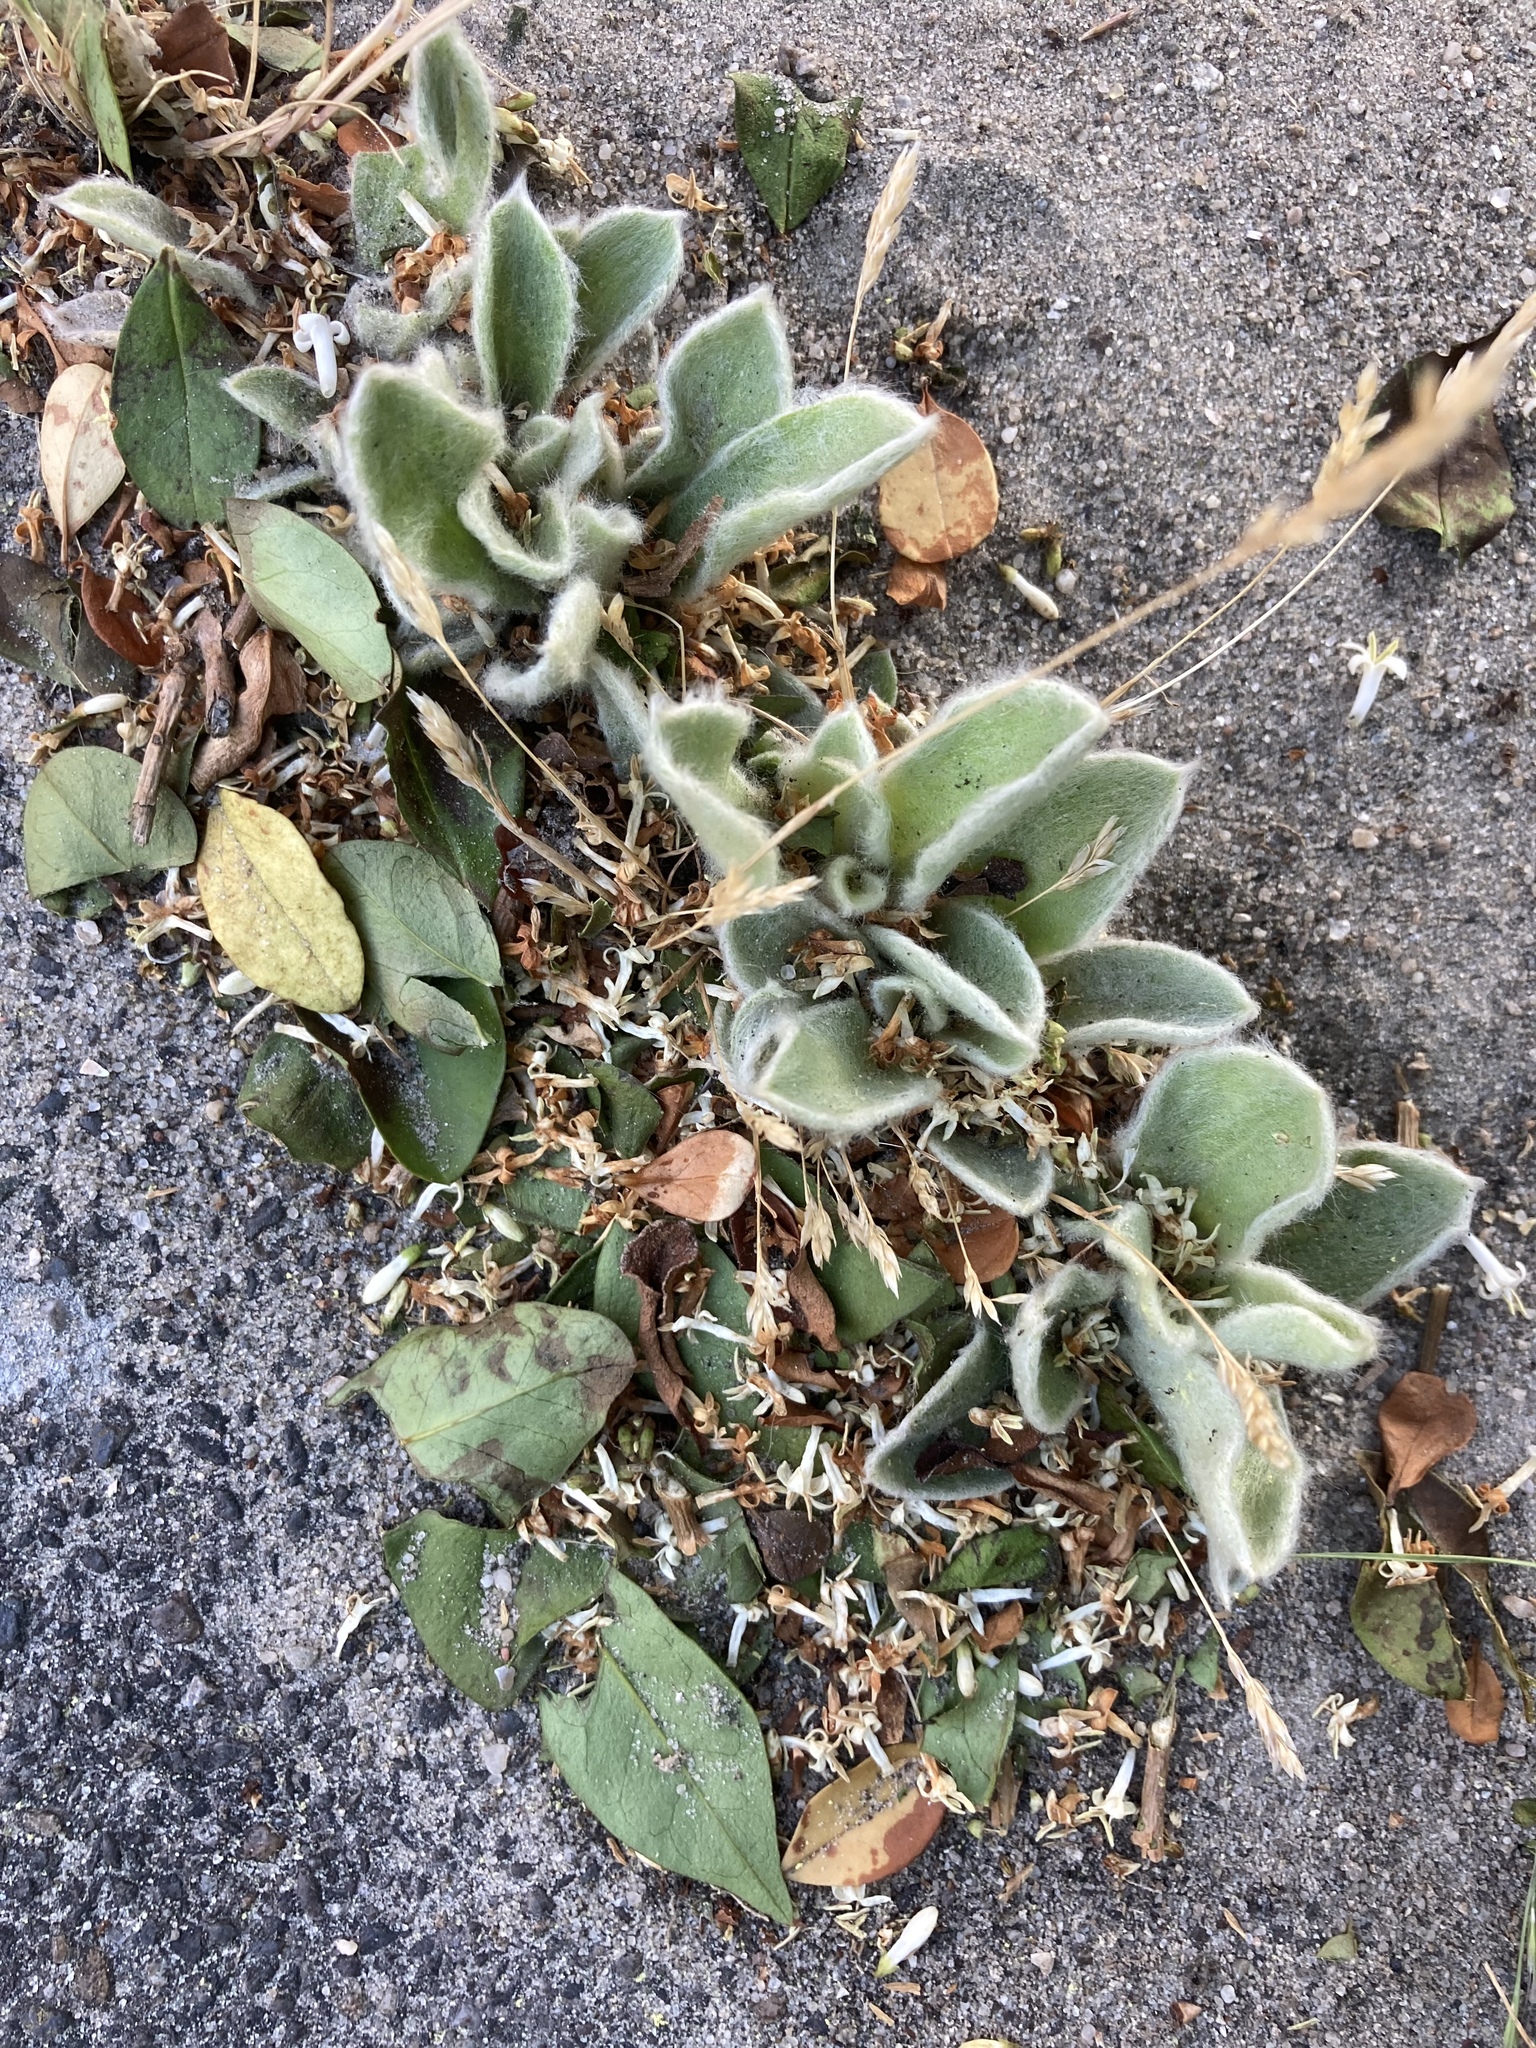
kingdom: Plantae
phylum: Tracheophyta
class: Magnoliopsida
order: Caryophyllales
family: Caryophyllaceae
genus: Silene
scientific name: Silene coronaria
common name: Rose campion
